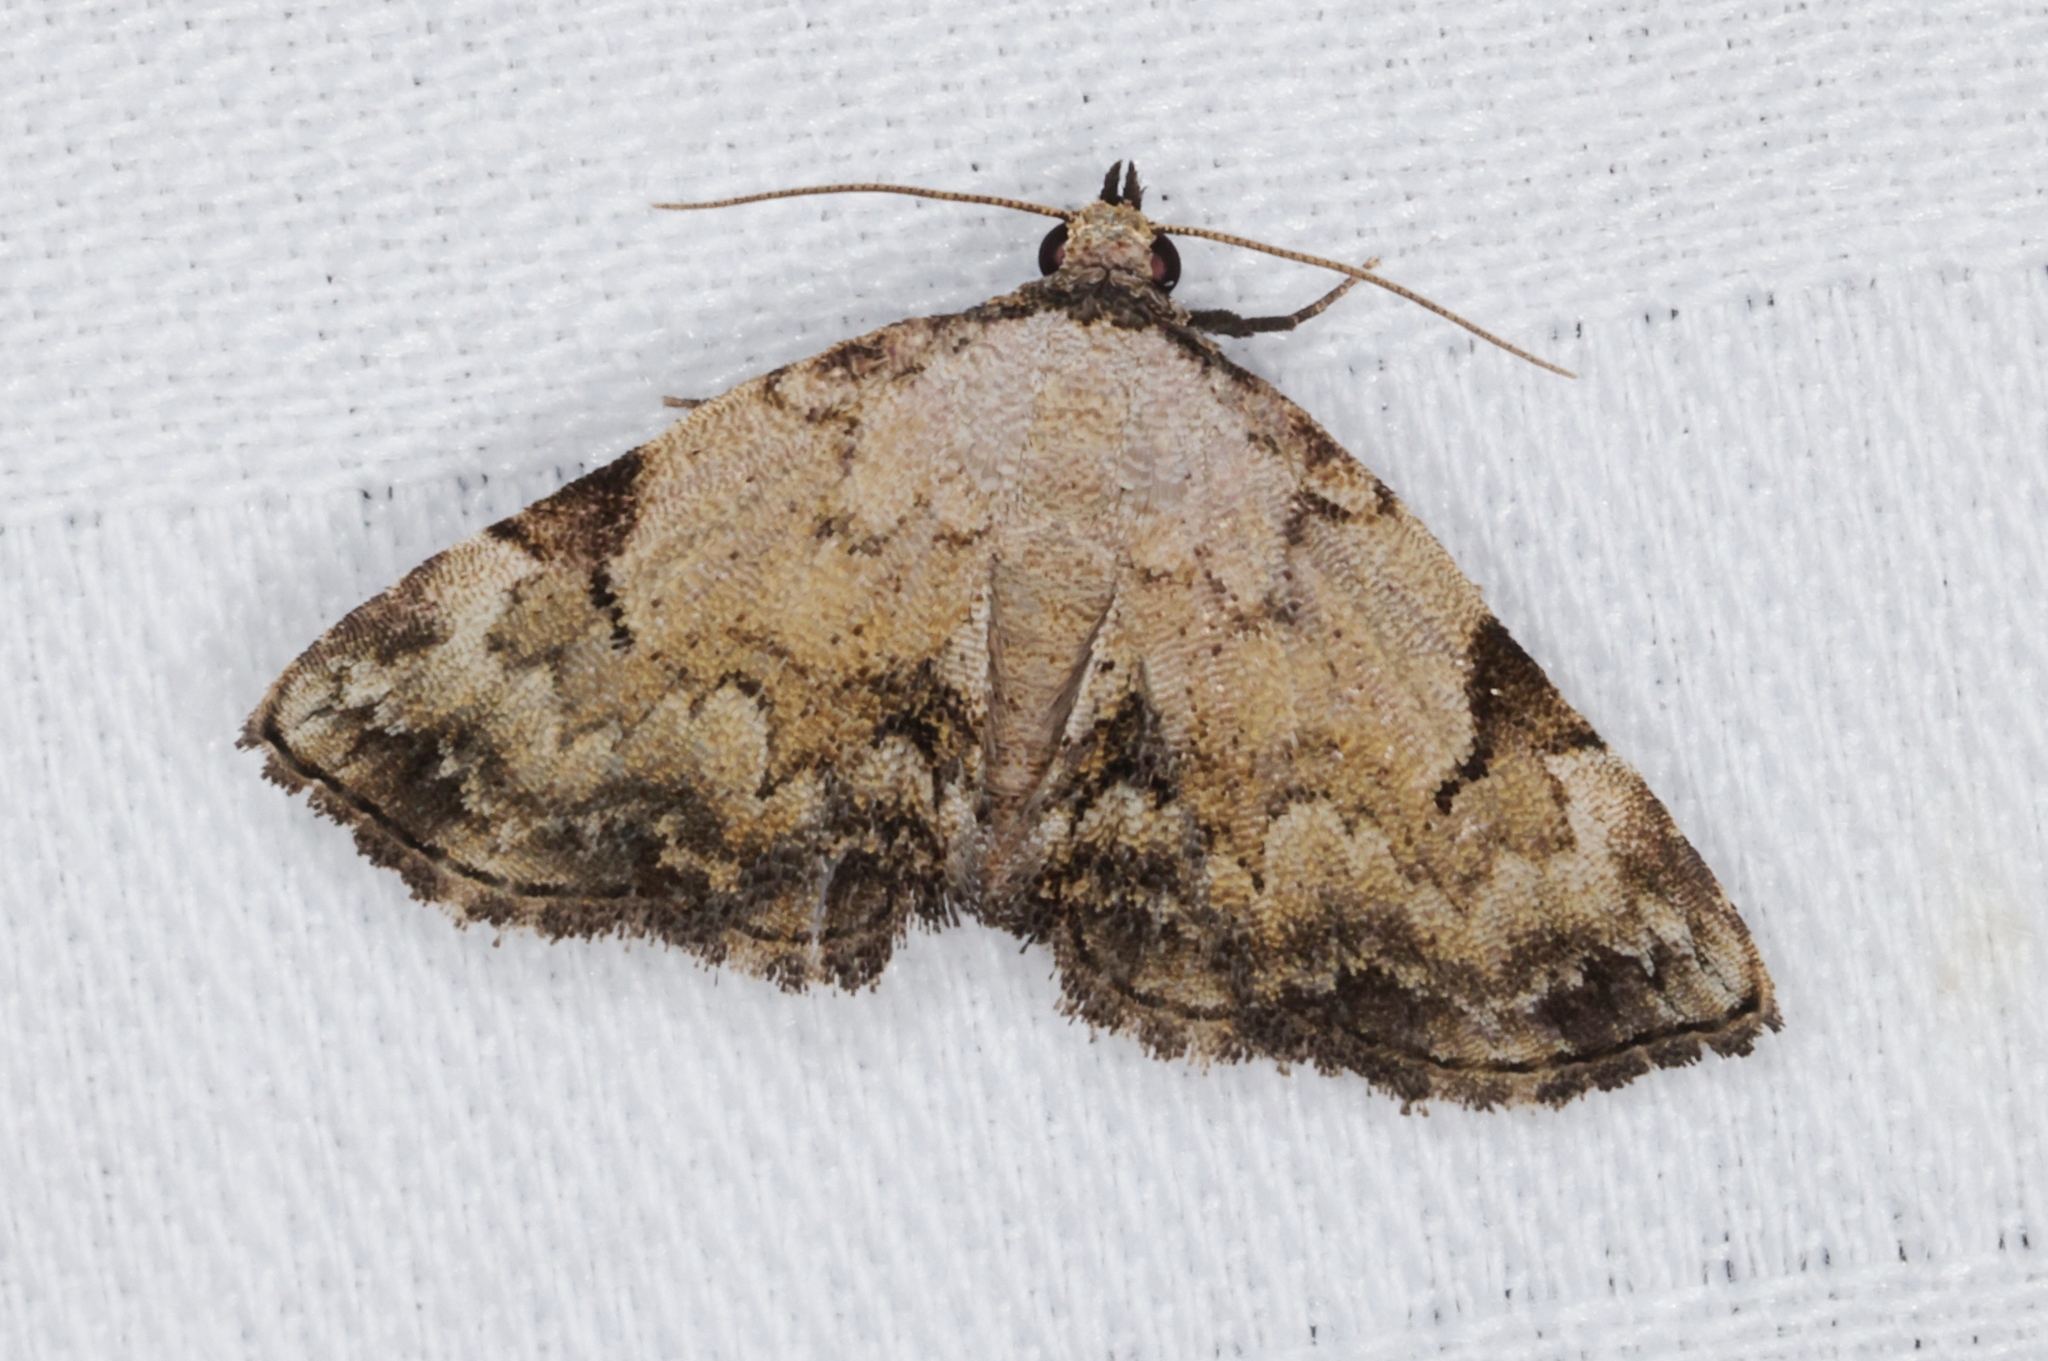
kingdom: Animalia
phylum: Arthropoda
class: Insecta
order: Lepidoptera
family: Noctuidae
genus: Mataeomera
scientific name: Mataeomera semialba
